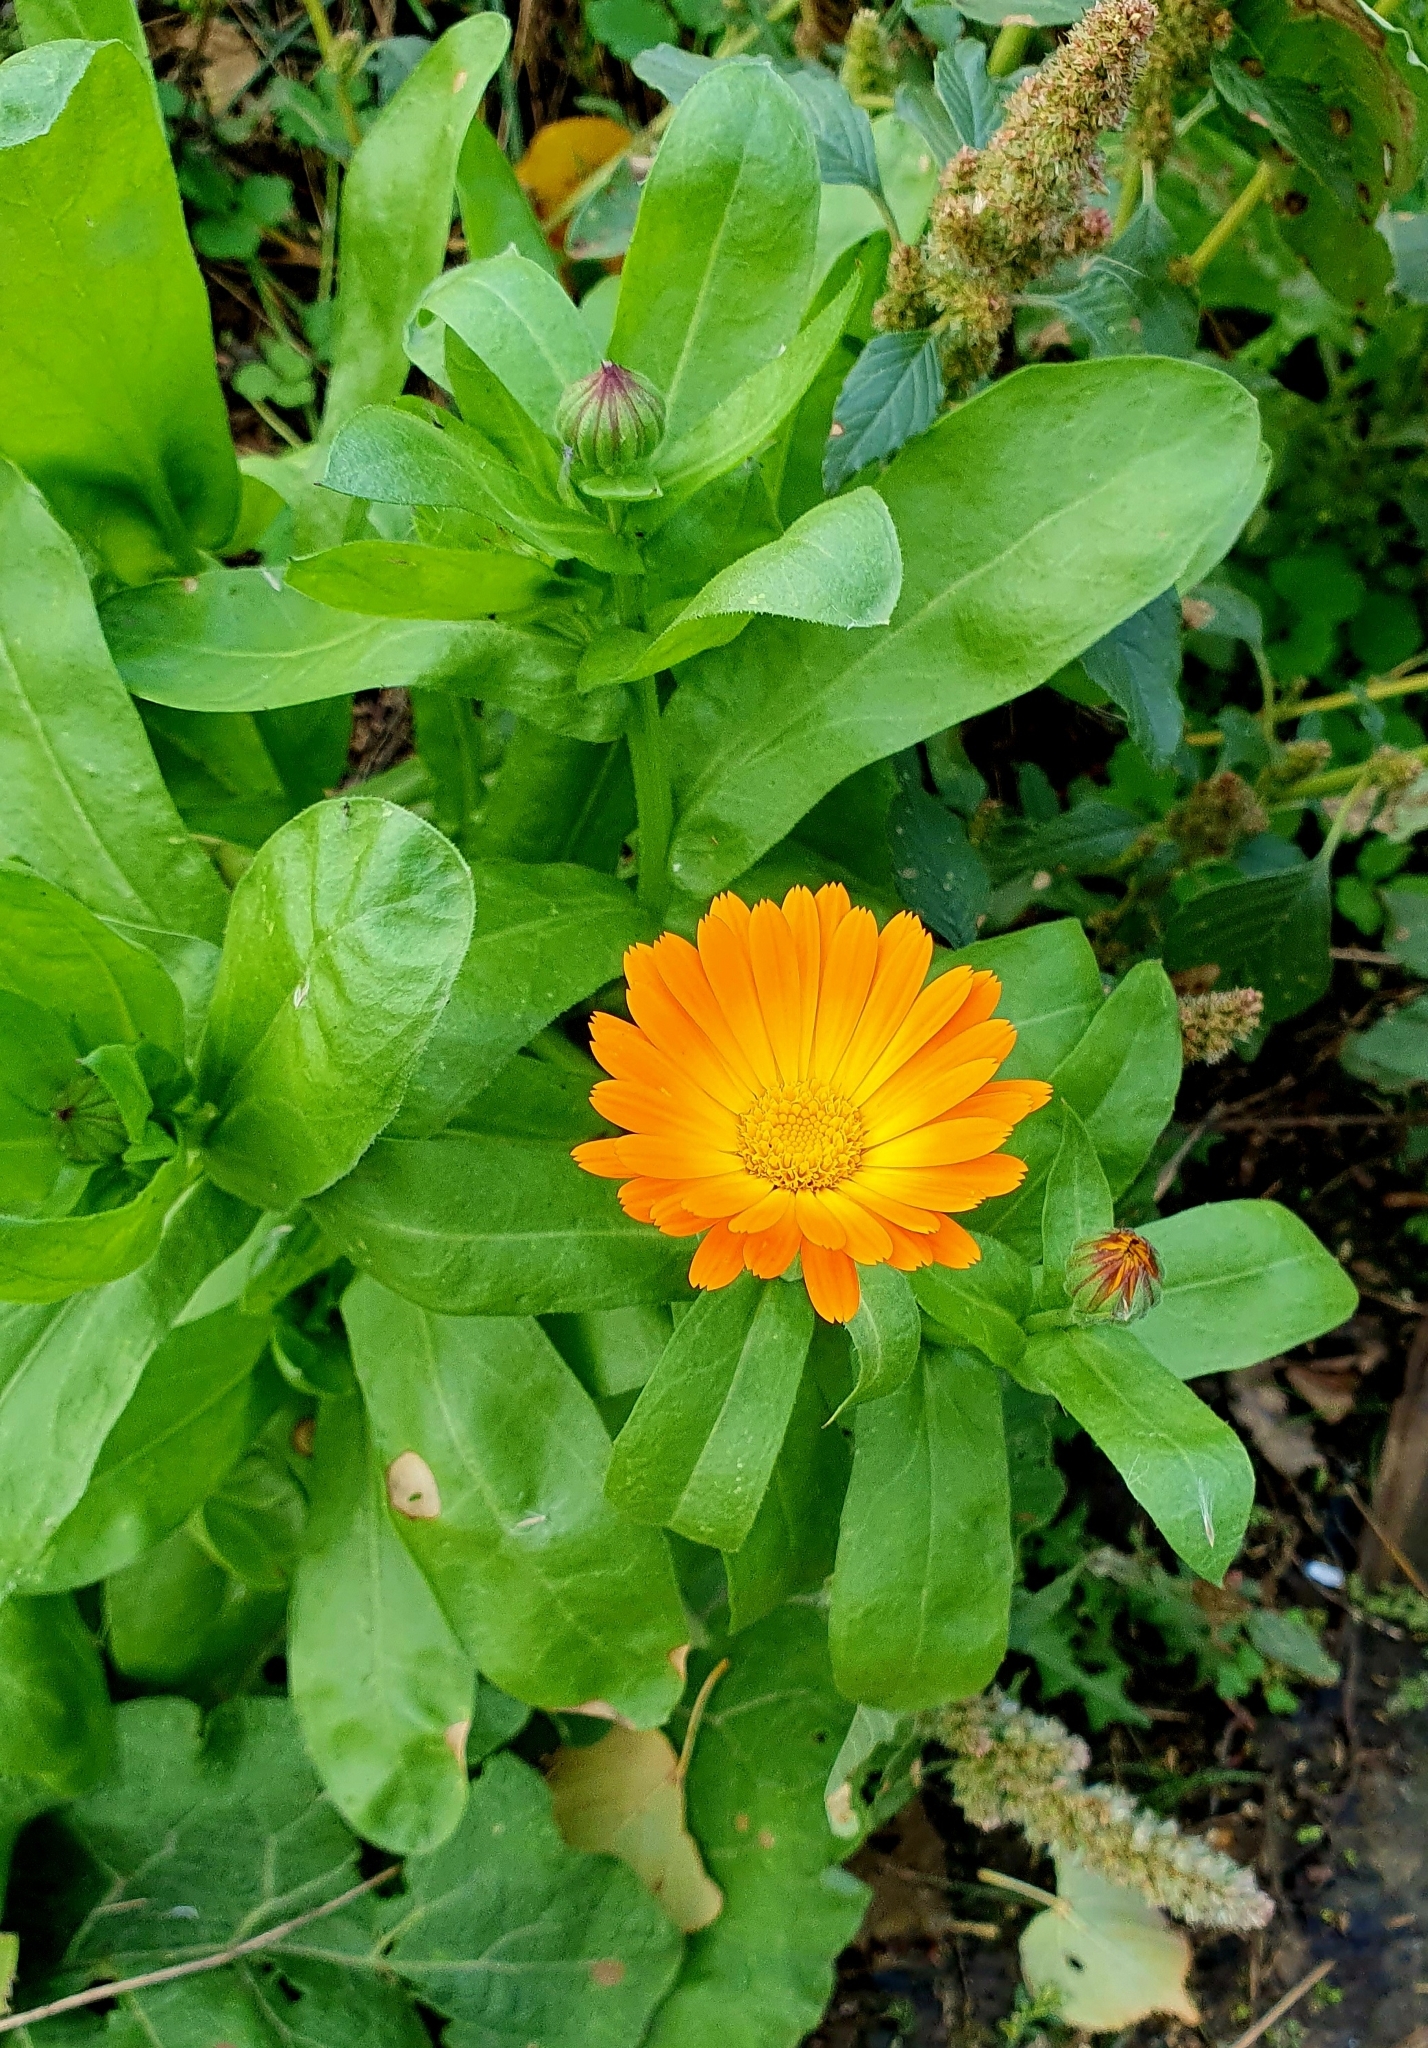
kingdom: Plantae
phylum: Tracheophyta
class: Magnoliopsida
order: Asterales
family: Asteraceae
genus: Calendula
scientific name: Calendula officinalis
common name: Pot marigold
